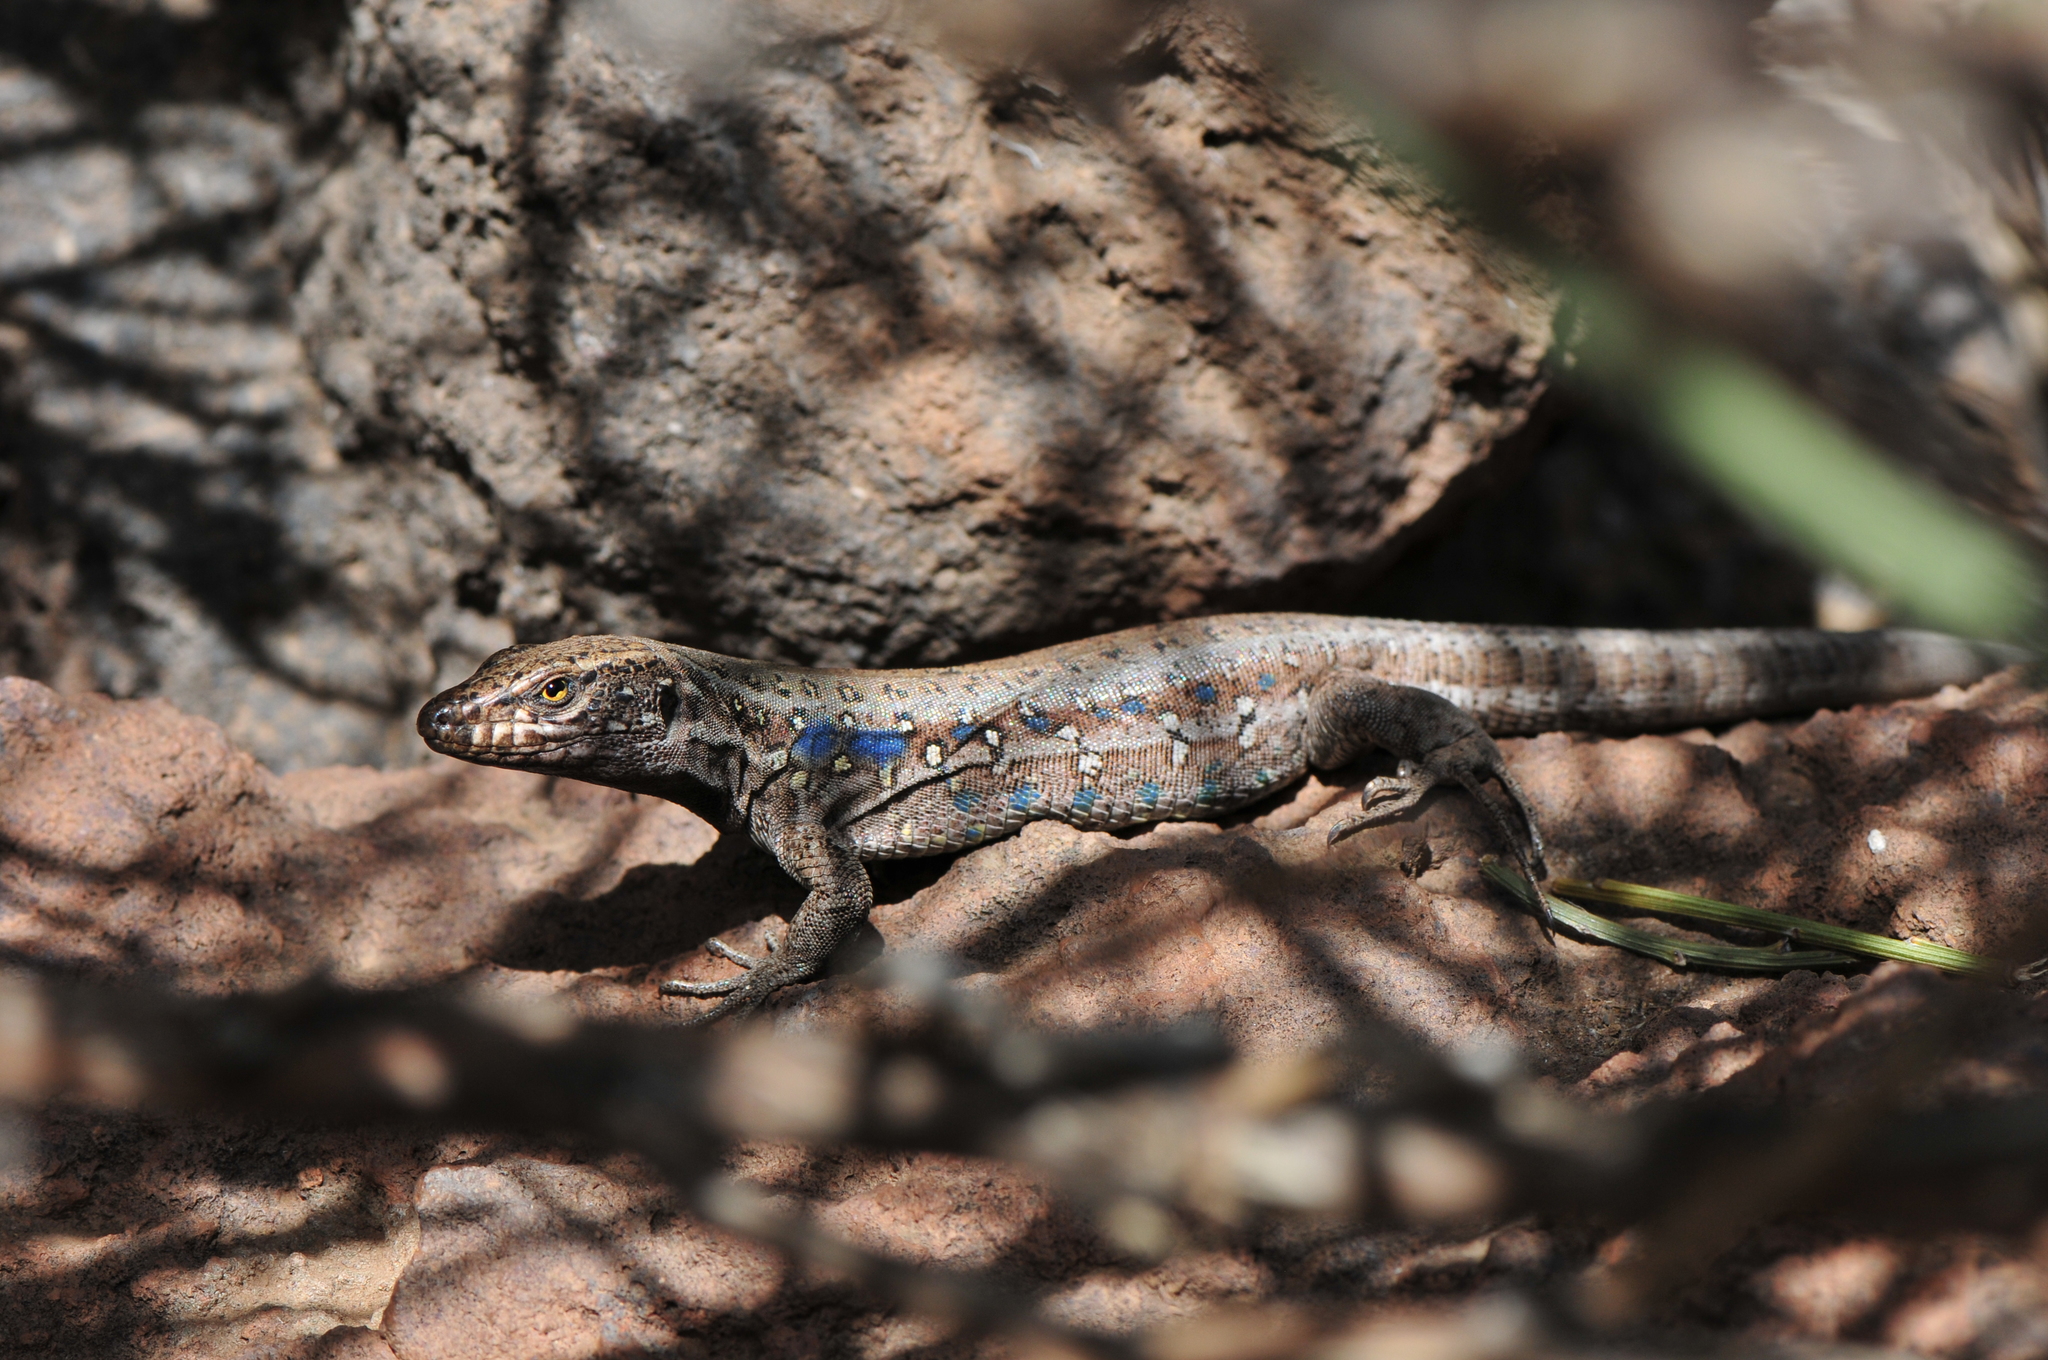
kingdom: Animalia
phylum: Chordata
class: Squamata
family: Lacertidae
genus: Gallotia
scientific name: Gallotia galloti
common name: Gallot's lizard
